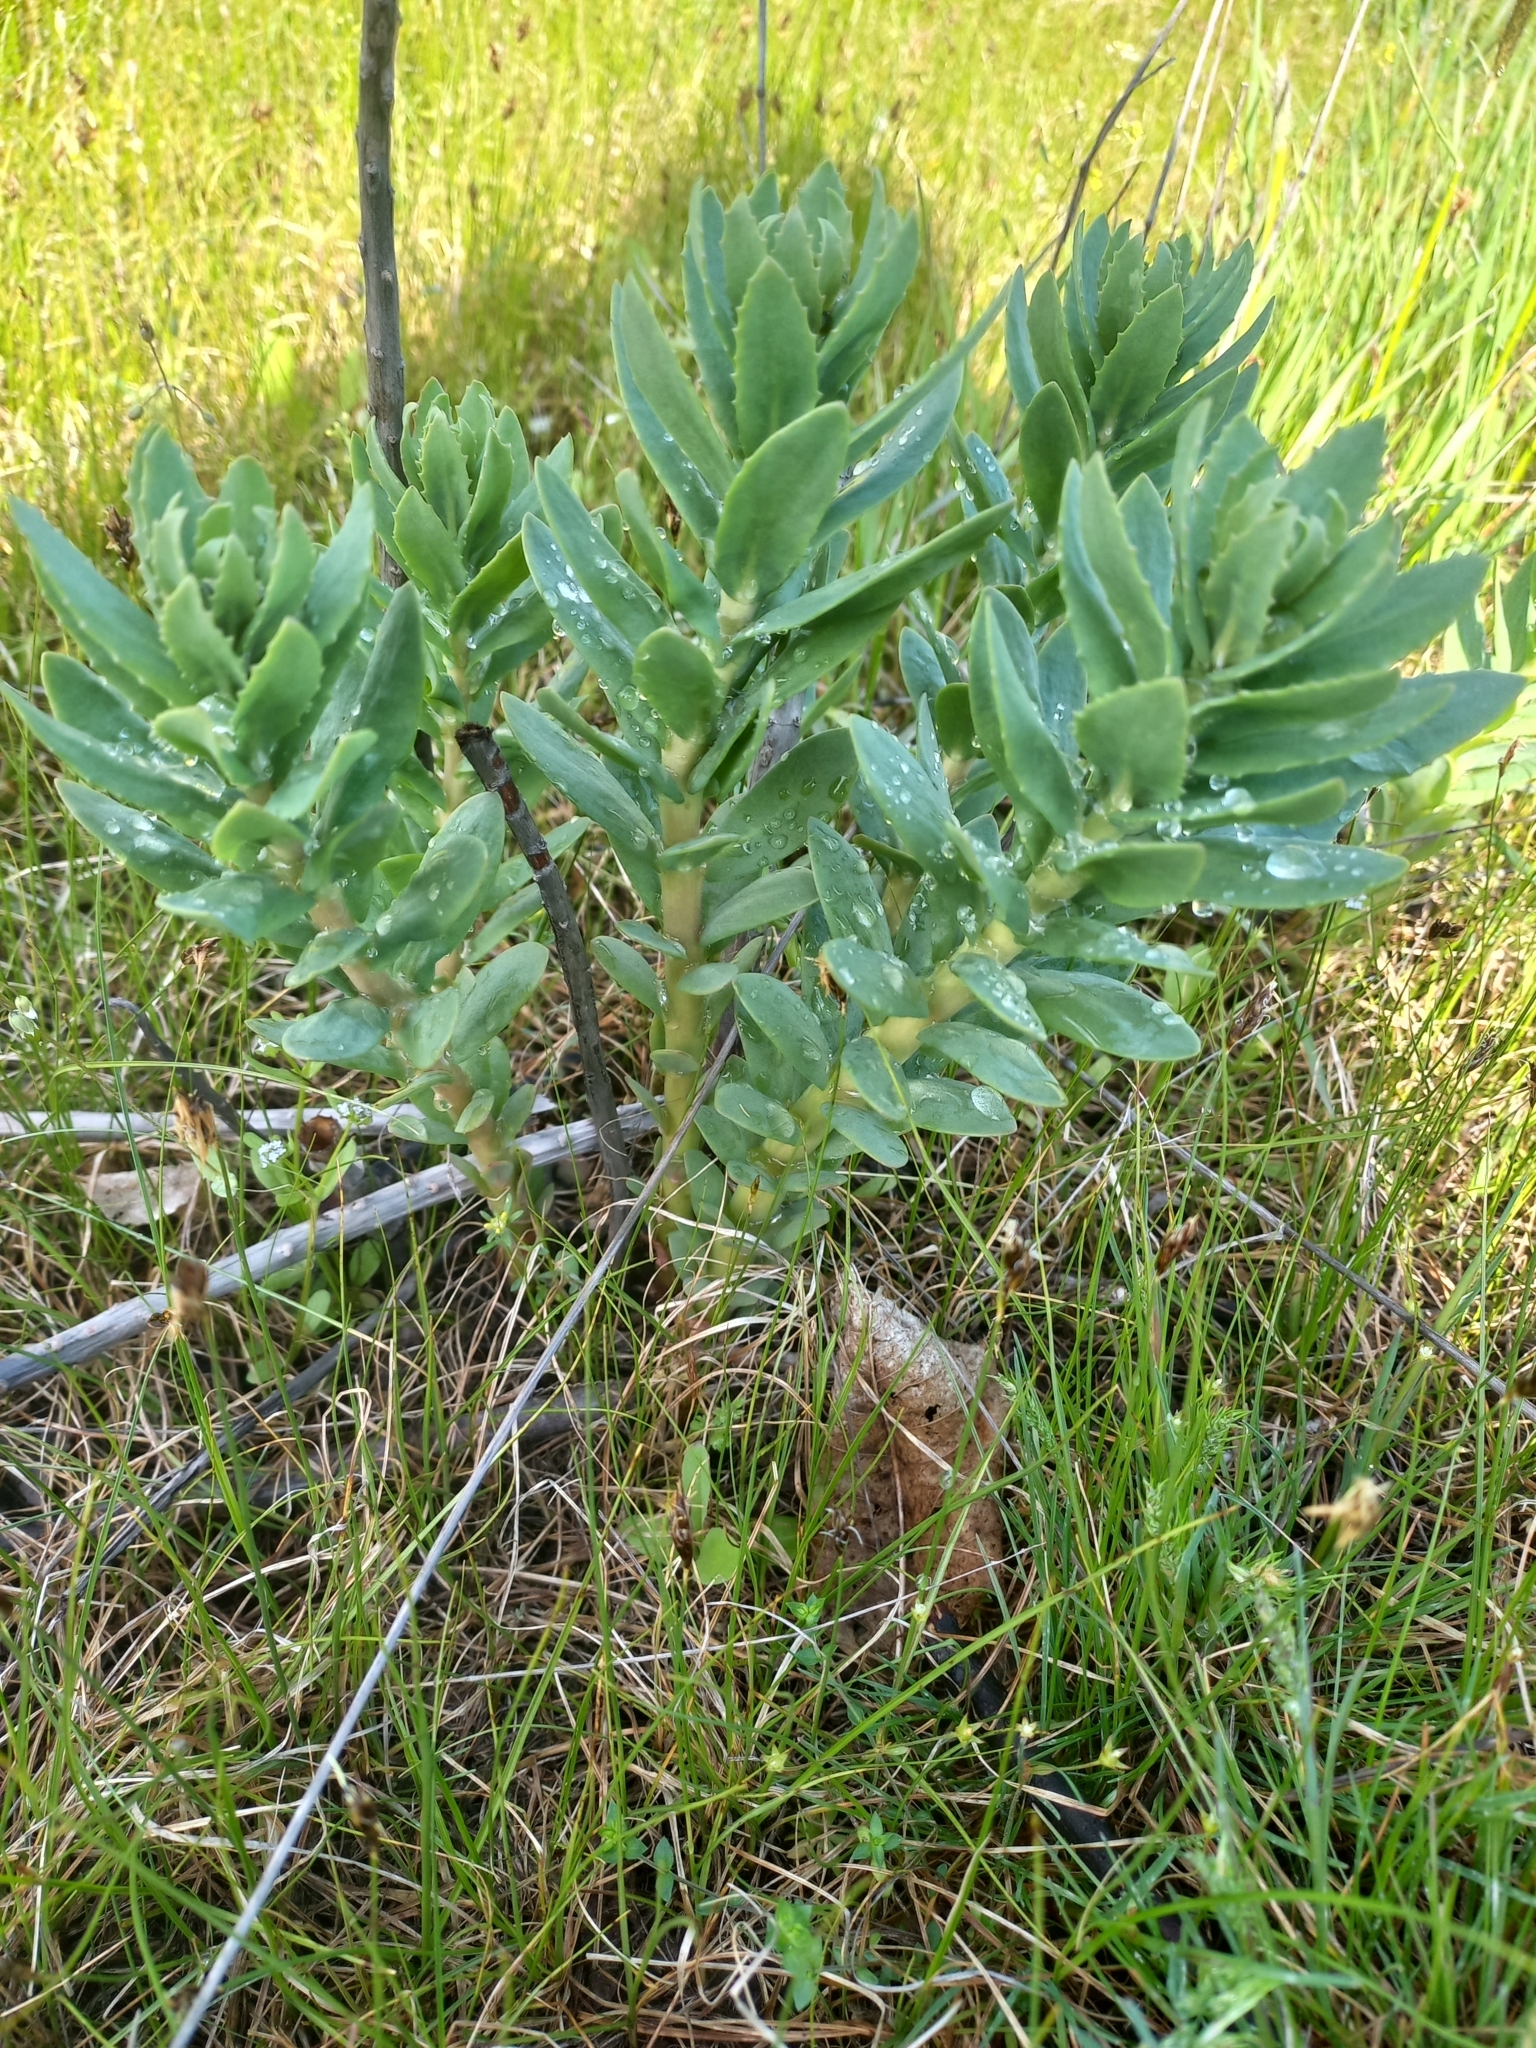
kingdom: Plantae
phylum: Tracheophyta
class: Magnoliopsida
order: Saxifragales
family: Crassulaceae
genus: Hylotelephium
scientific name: Hylotelephium telephium
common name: Live-forever
